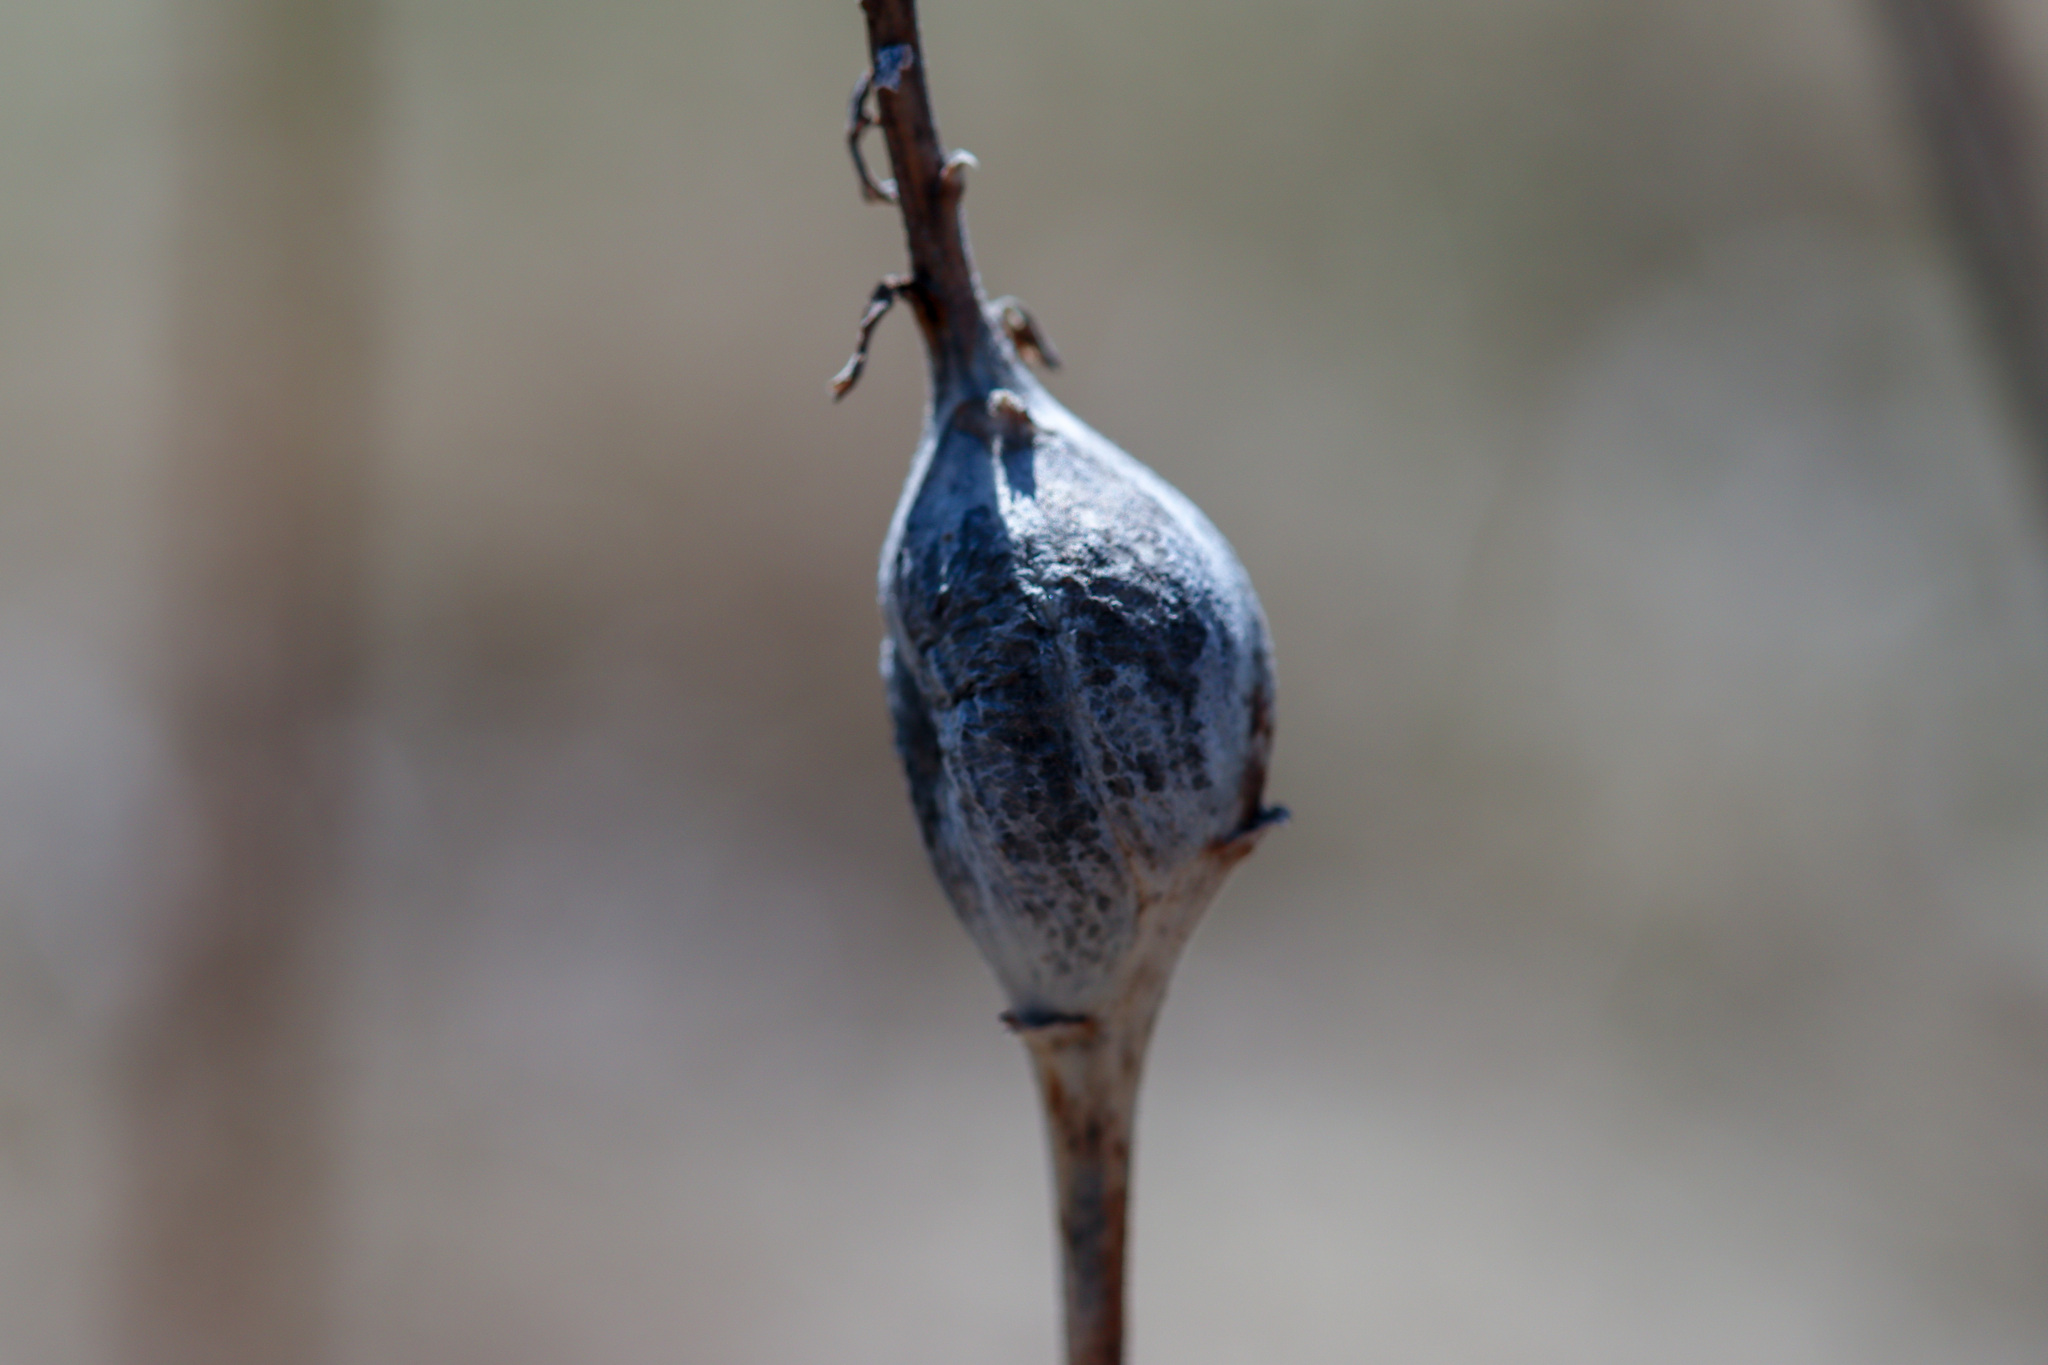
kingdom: Animalia
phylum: Arthropoda
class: Insecta
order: Diptera
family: Tephritidae
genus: Eurosta
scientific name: Eurosta solidaginis
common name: Goldenrod gall fly
